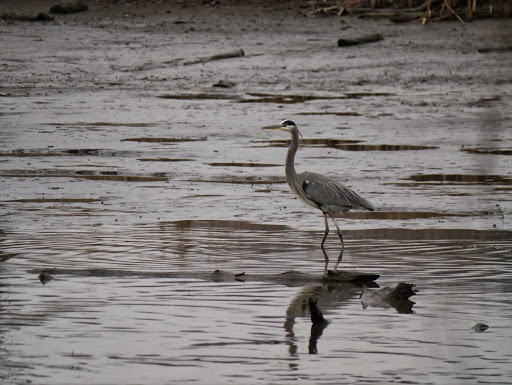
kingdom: Animalia
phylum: Chordata
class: Aves
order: Pelecaniformes
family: Ardeidae
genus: Ardea
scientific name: Ardea herodias
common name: Great blue heron
